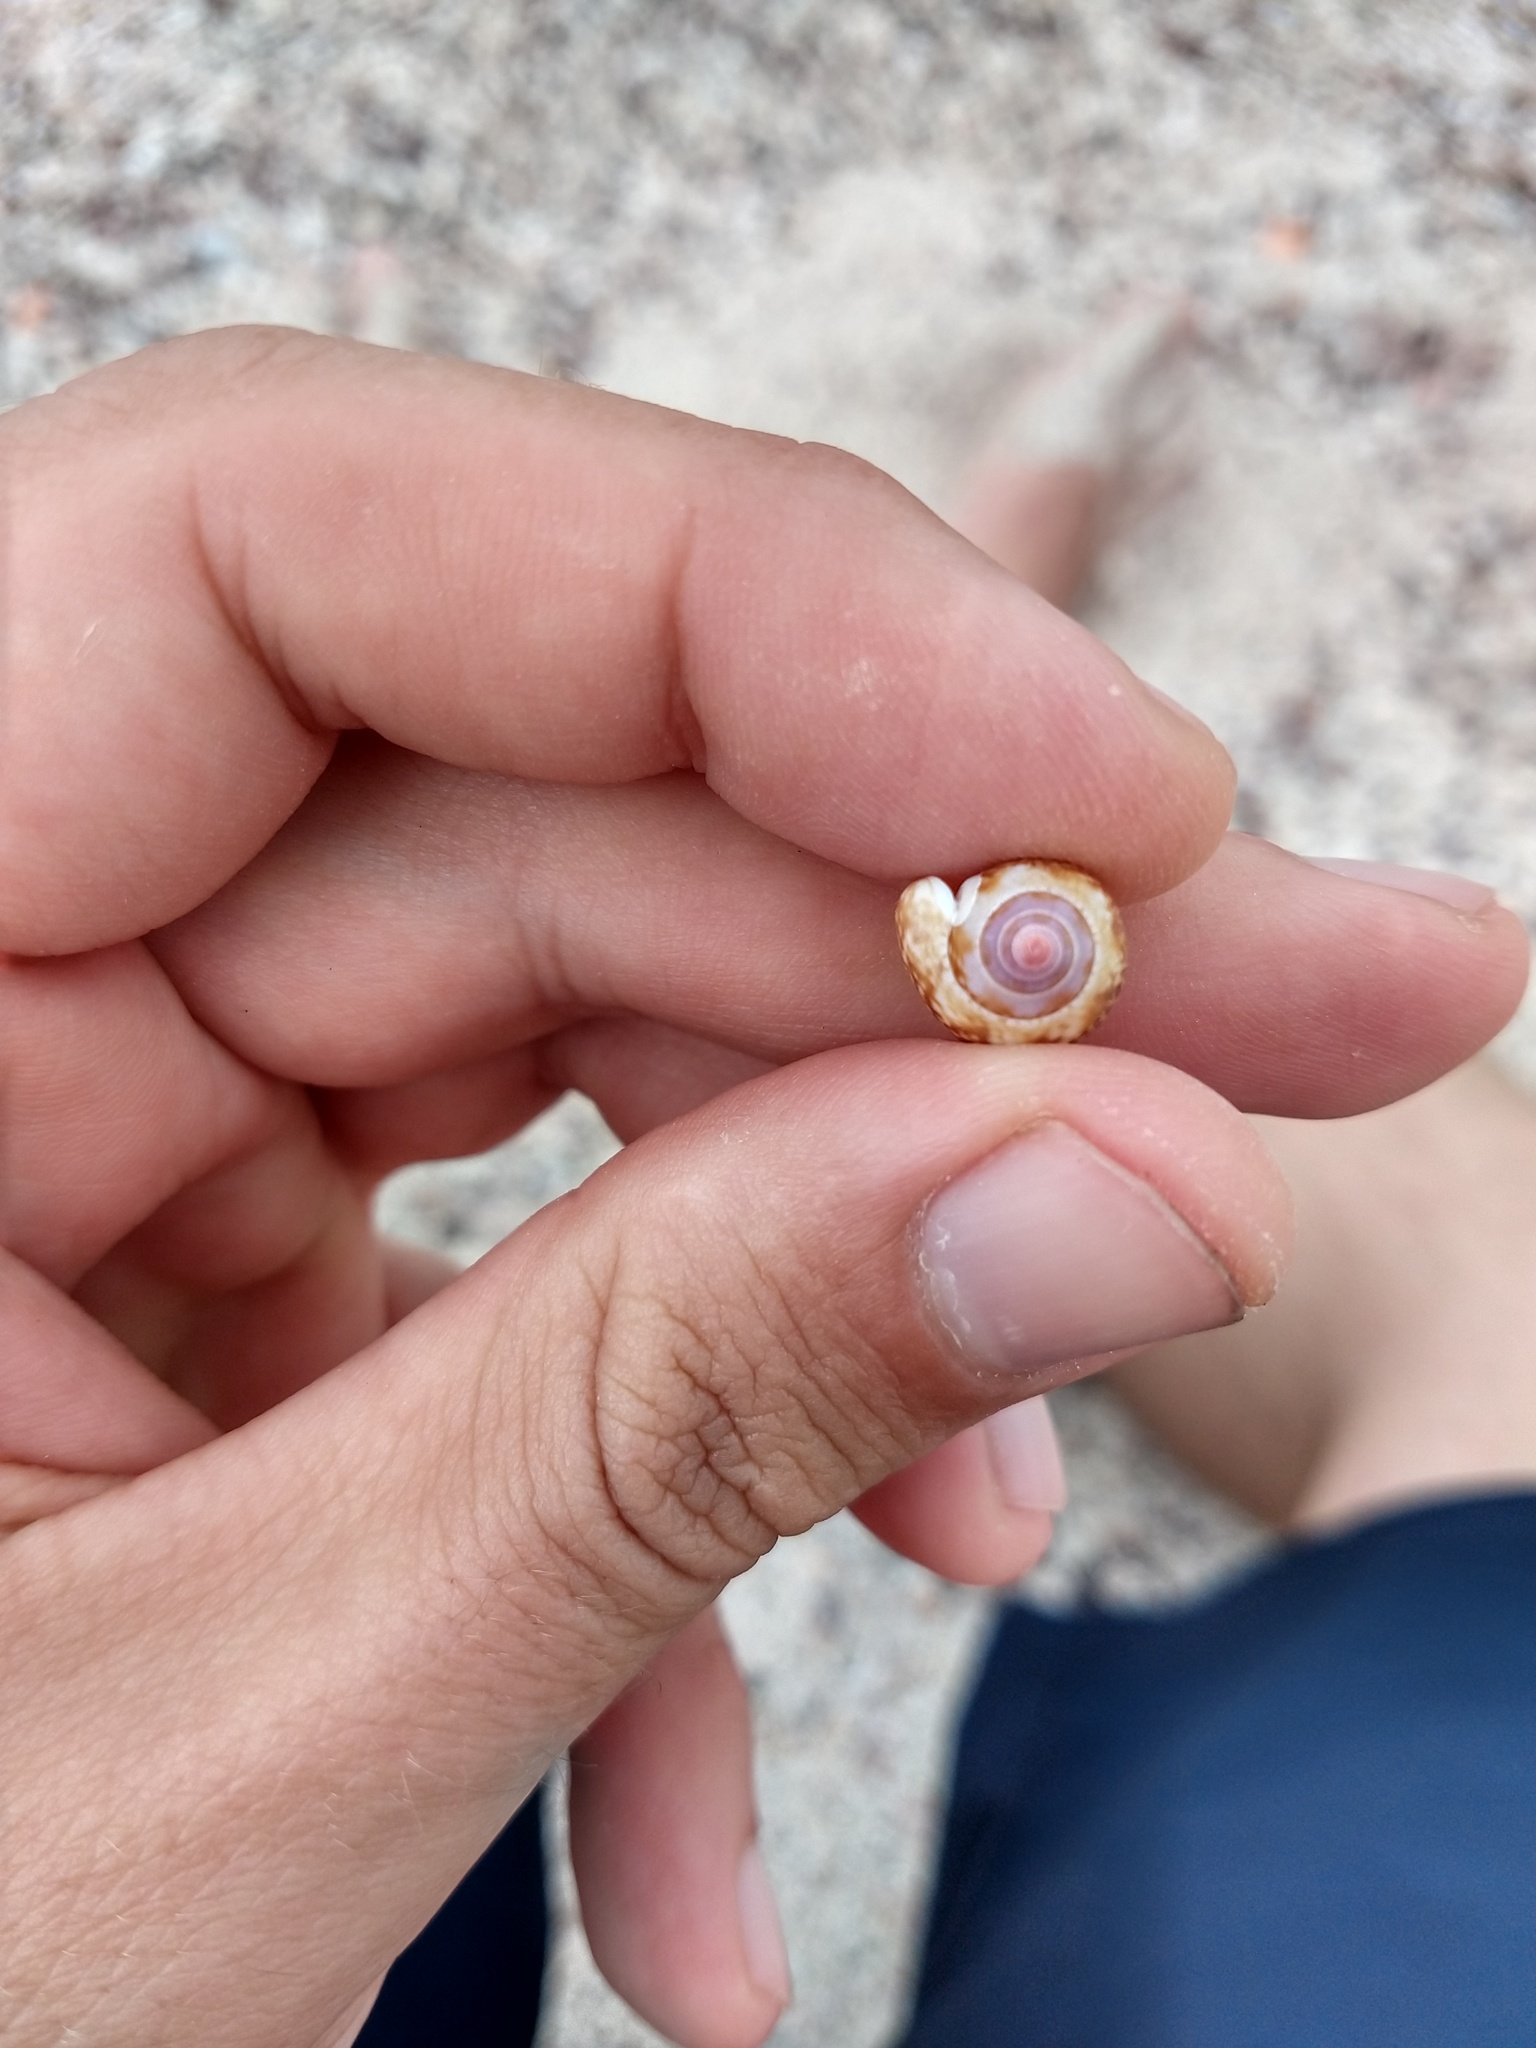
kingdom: Animalia
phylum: Mollusca
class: Gastropoda
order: Neogastropoda
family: Columbellidae
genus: Columbella
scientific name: Columbella fuscata
